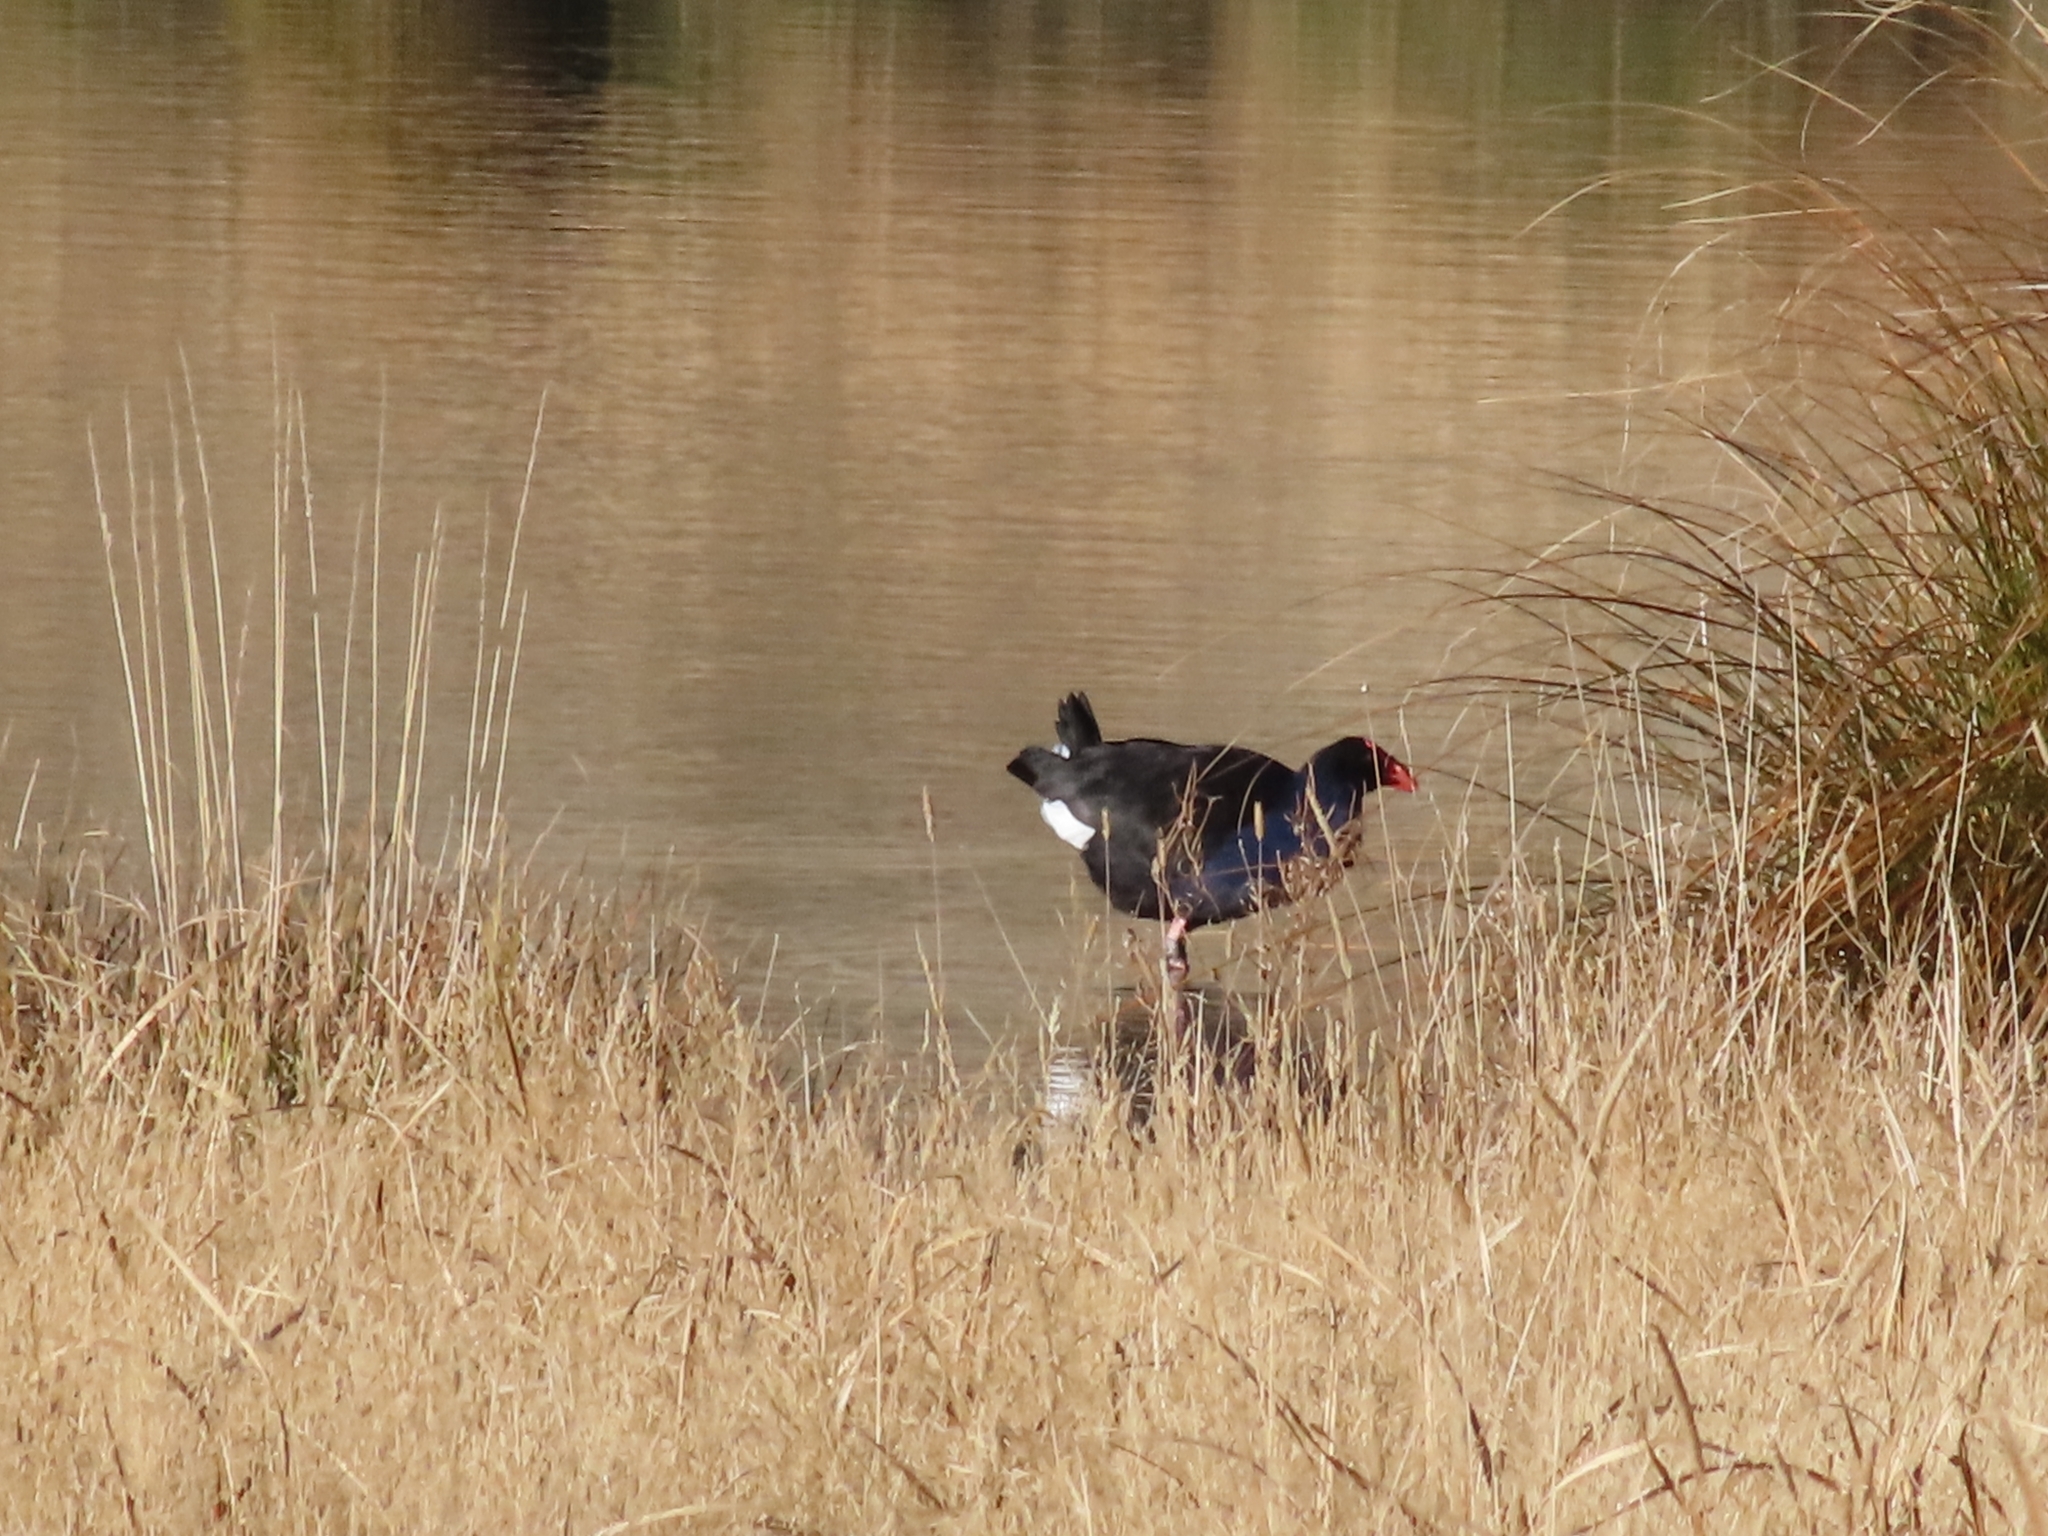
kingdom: Animalia
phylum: Chordata
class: Aves
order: Gruiformes
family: Rallidae
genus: Porphyrio
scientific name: Porphyrio melanotus
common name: Australasian swamphen
